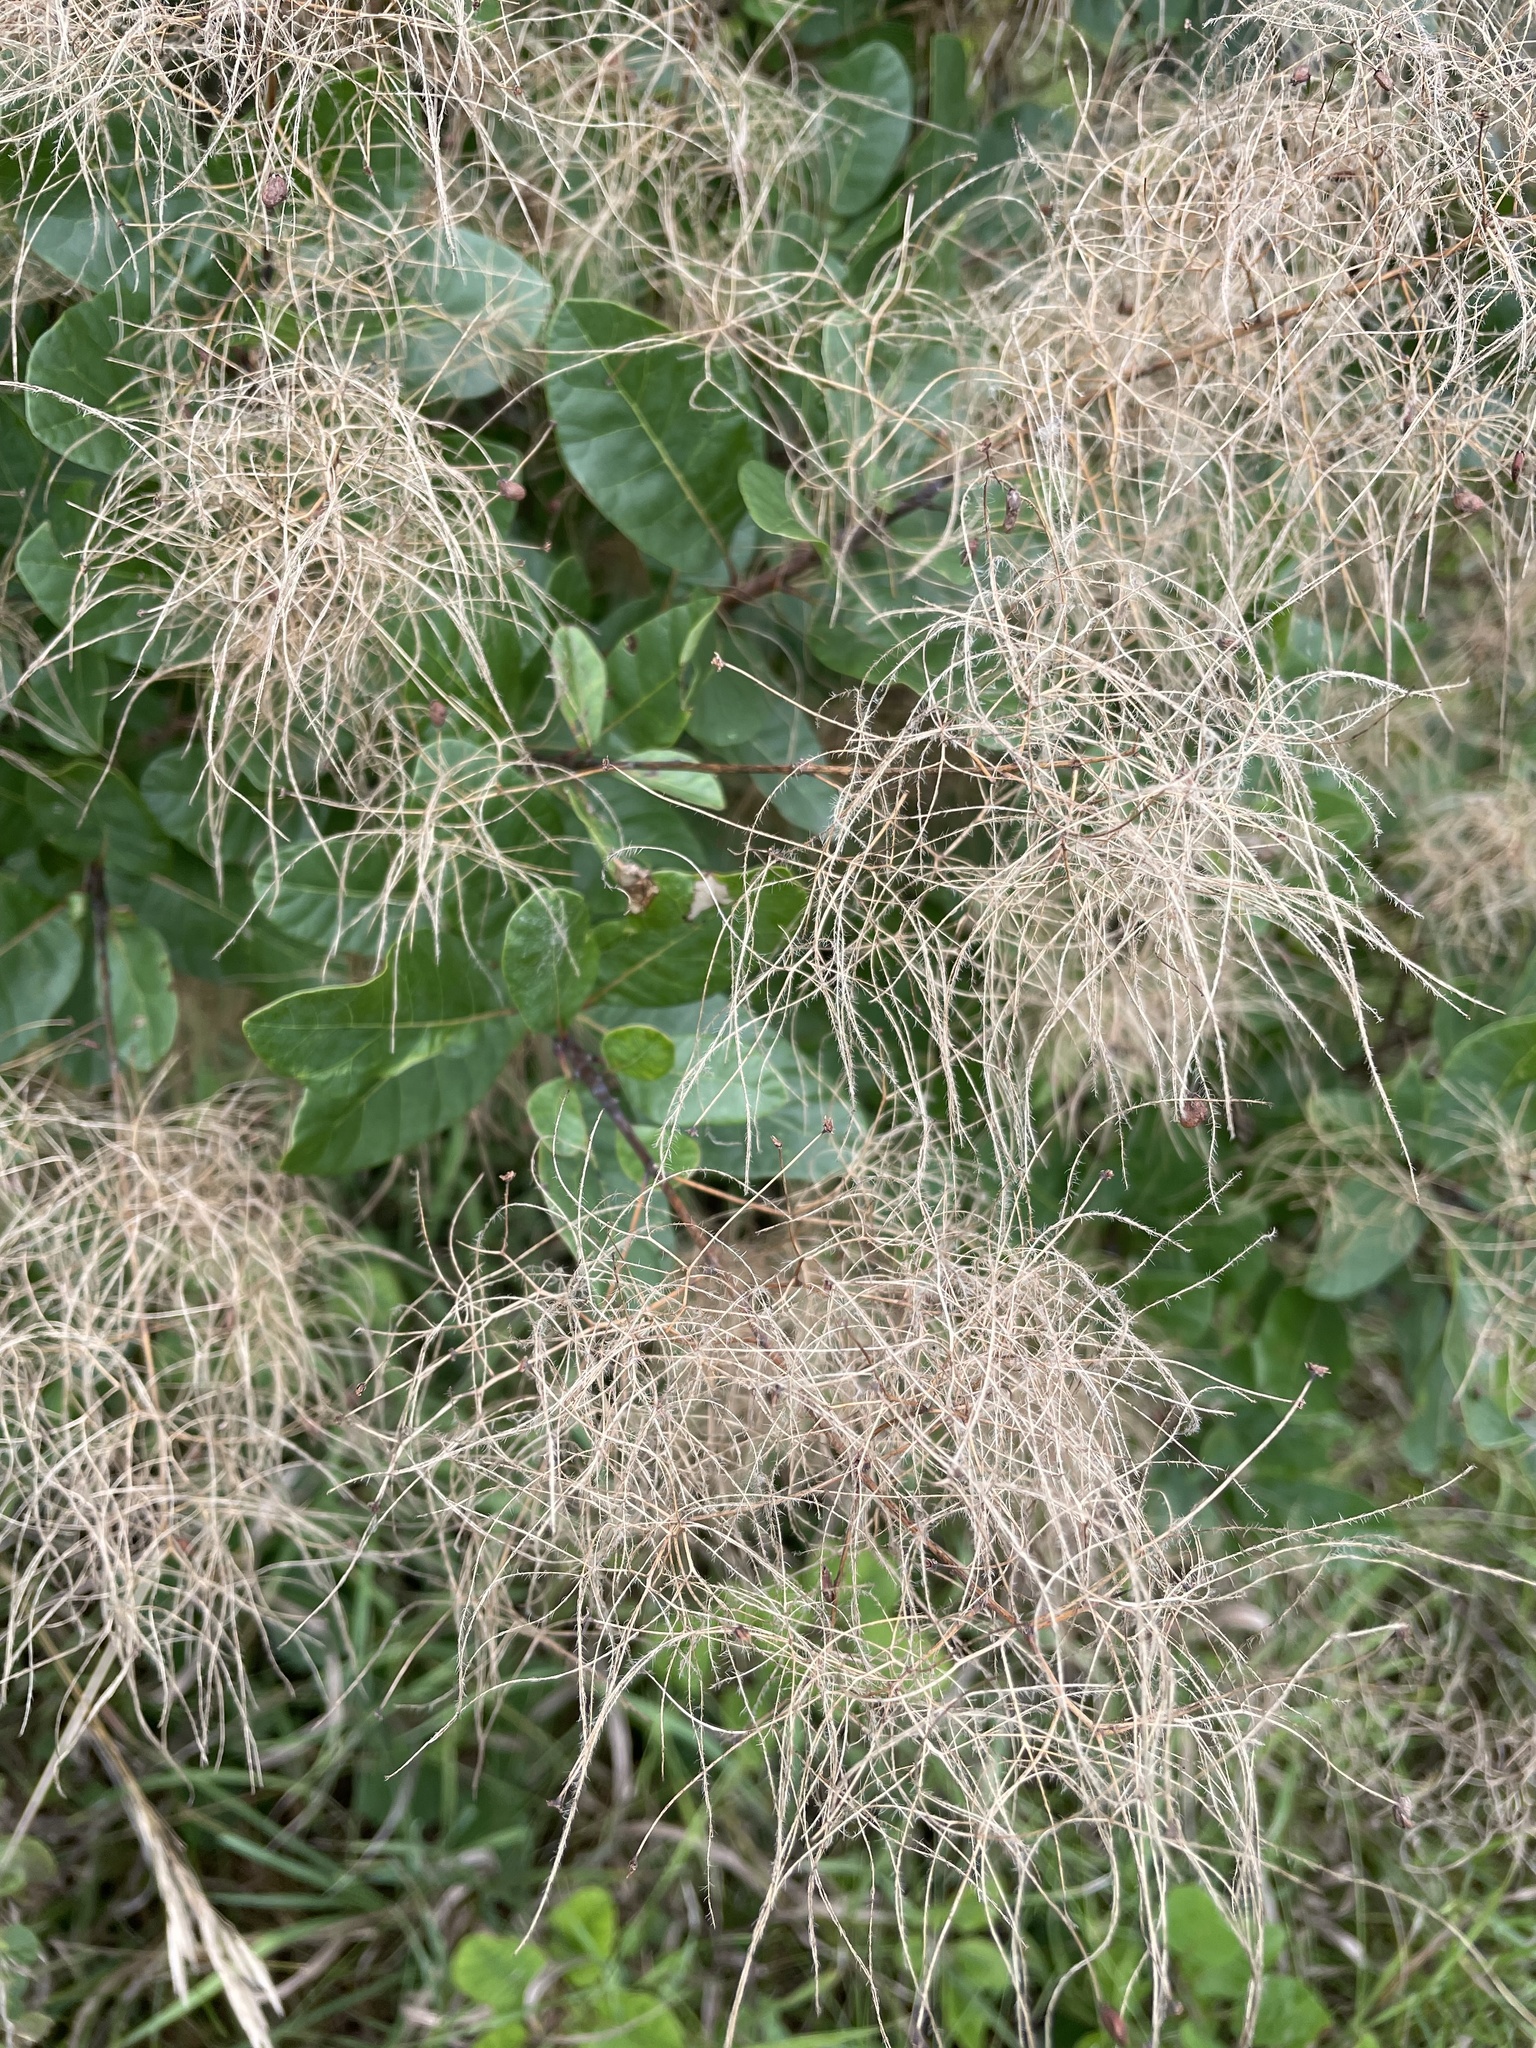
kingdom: Plantae
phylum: Tracheophyta
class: Magnoliopsida
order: Sapindales
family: Anacardiaceae
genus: Cotinus
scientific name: Cotinus coggygria
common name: Smoke-tree
